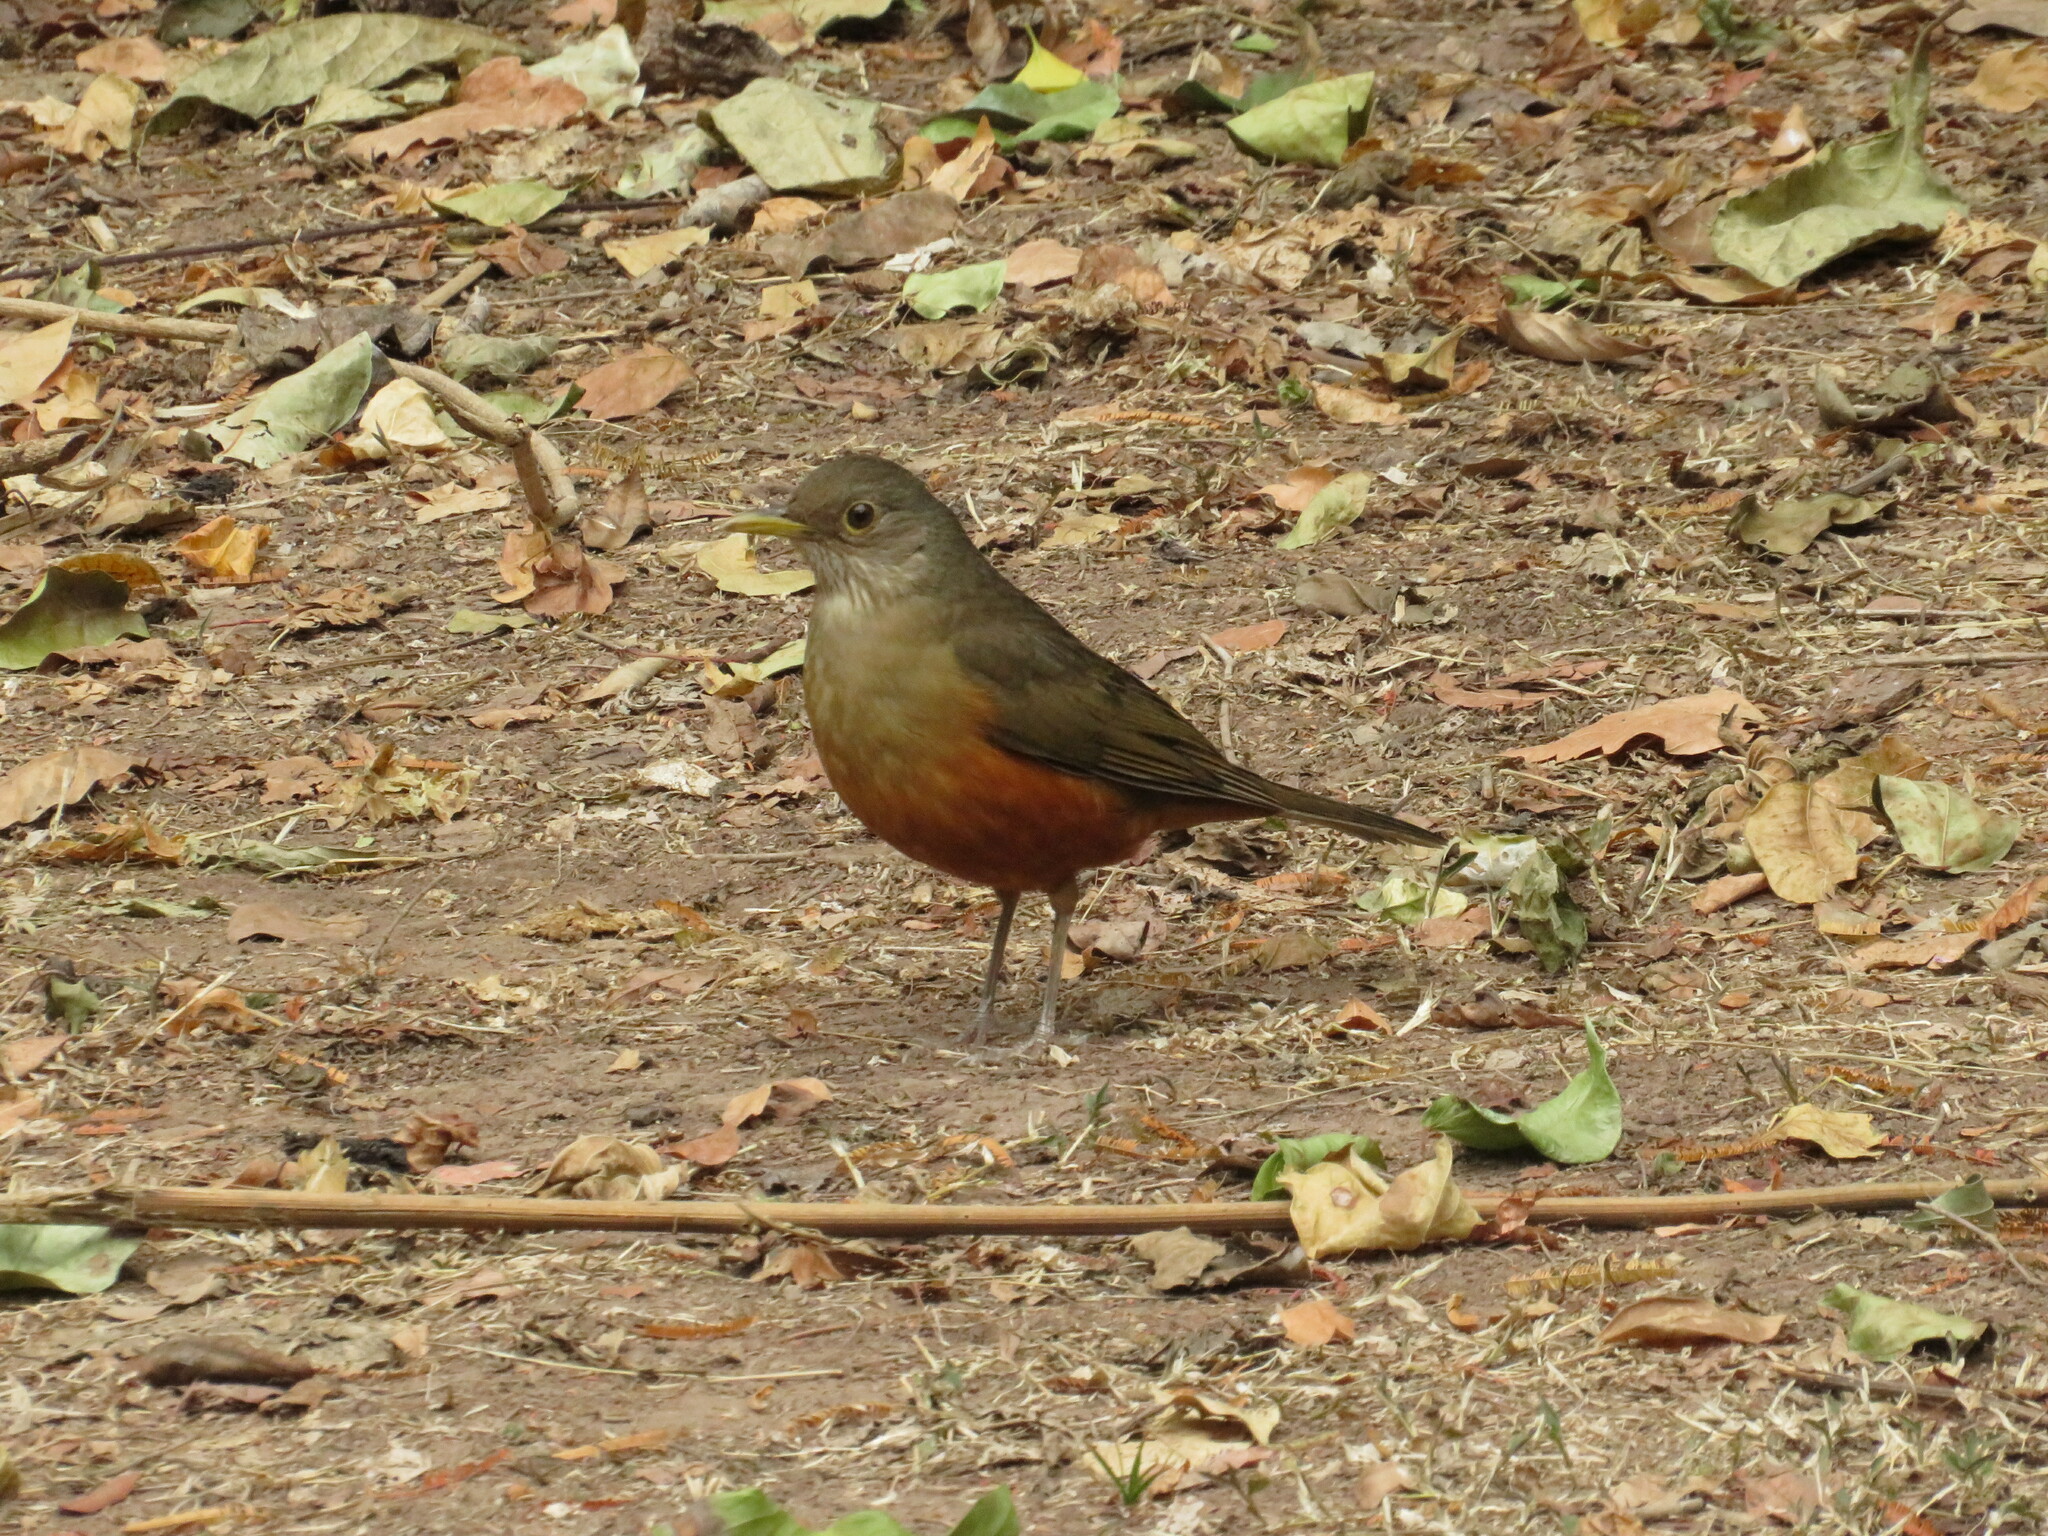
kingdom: Animalia
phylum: Chordata
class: Aves
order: Passeriformes
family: Turdidae
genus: Turdus
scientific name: Turdus rufiventris
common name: Rufous-bellied thrush
